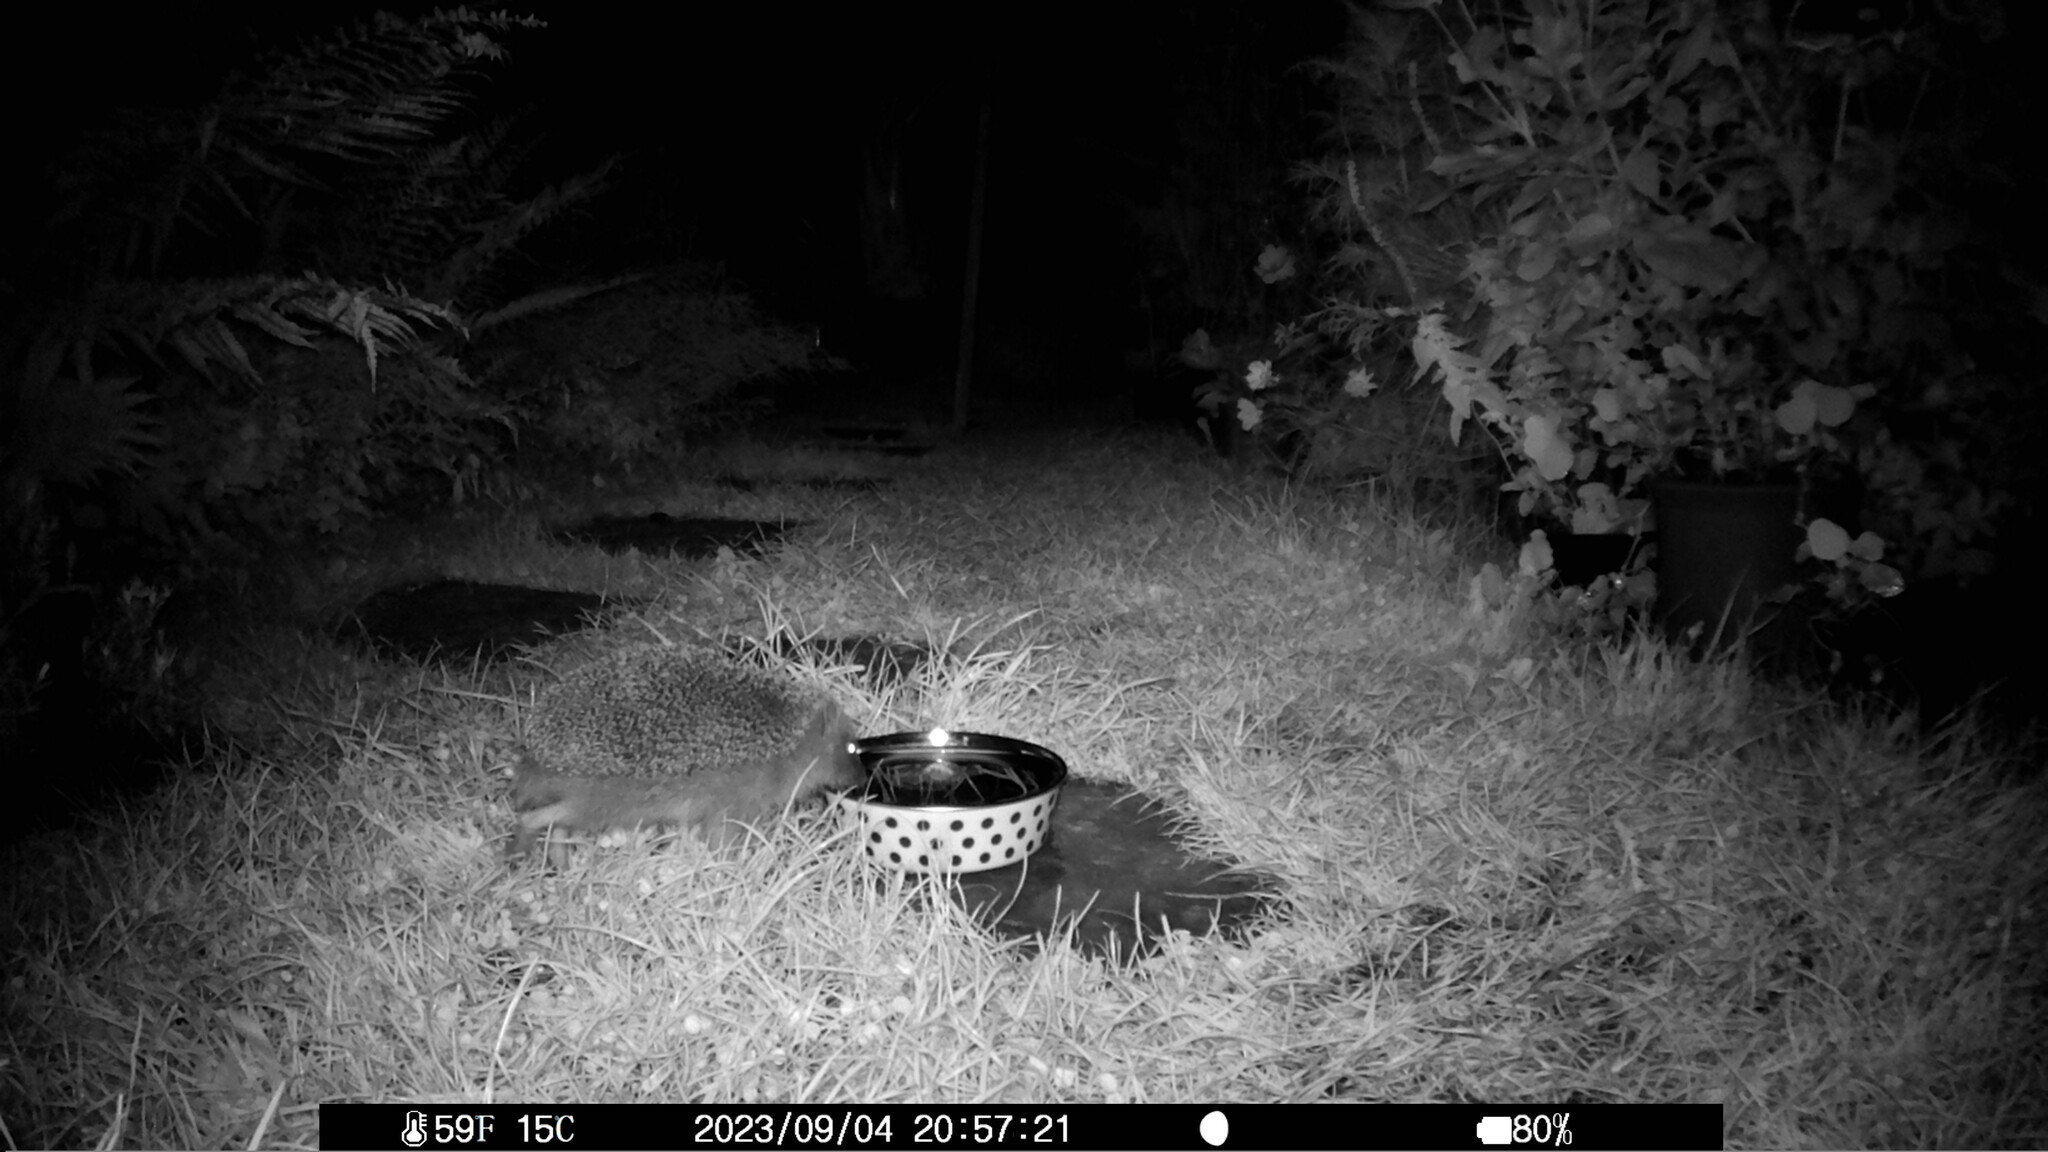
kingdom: Animalia
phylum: Chordata
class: Mammalia
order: Erinaceomorpha
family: Erinaceidae
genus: Erinaceus
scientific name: Erinaceus europaeus
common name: West european hedgehog
